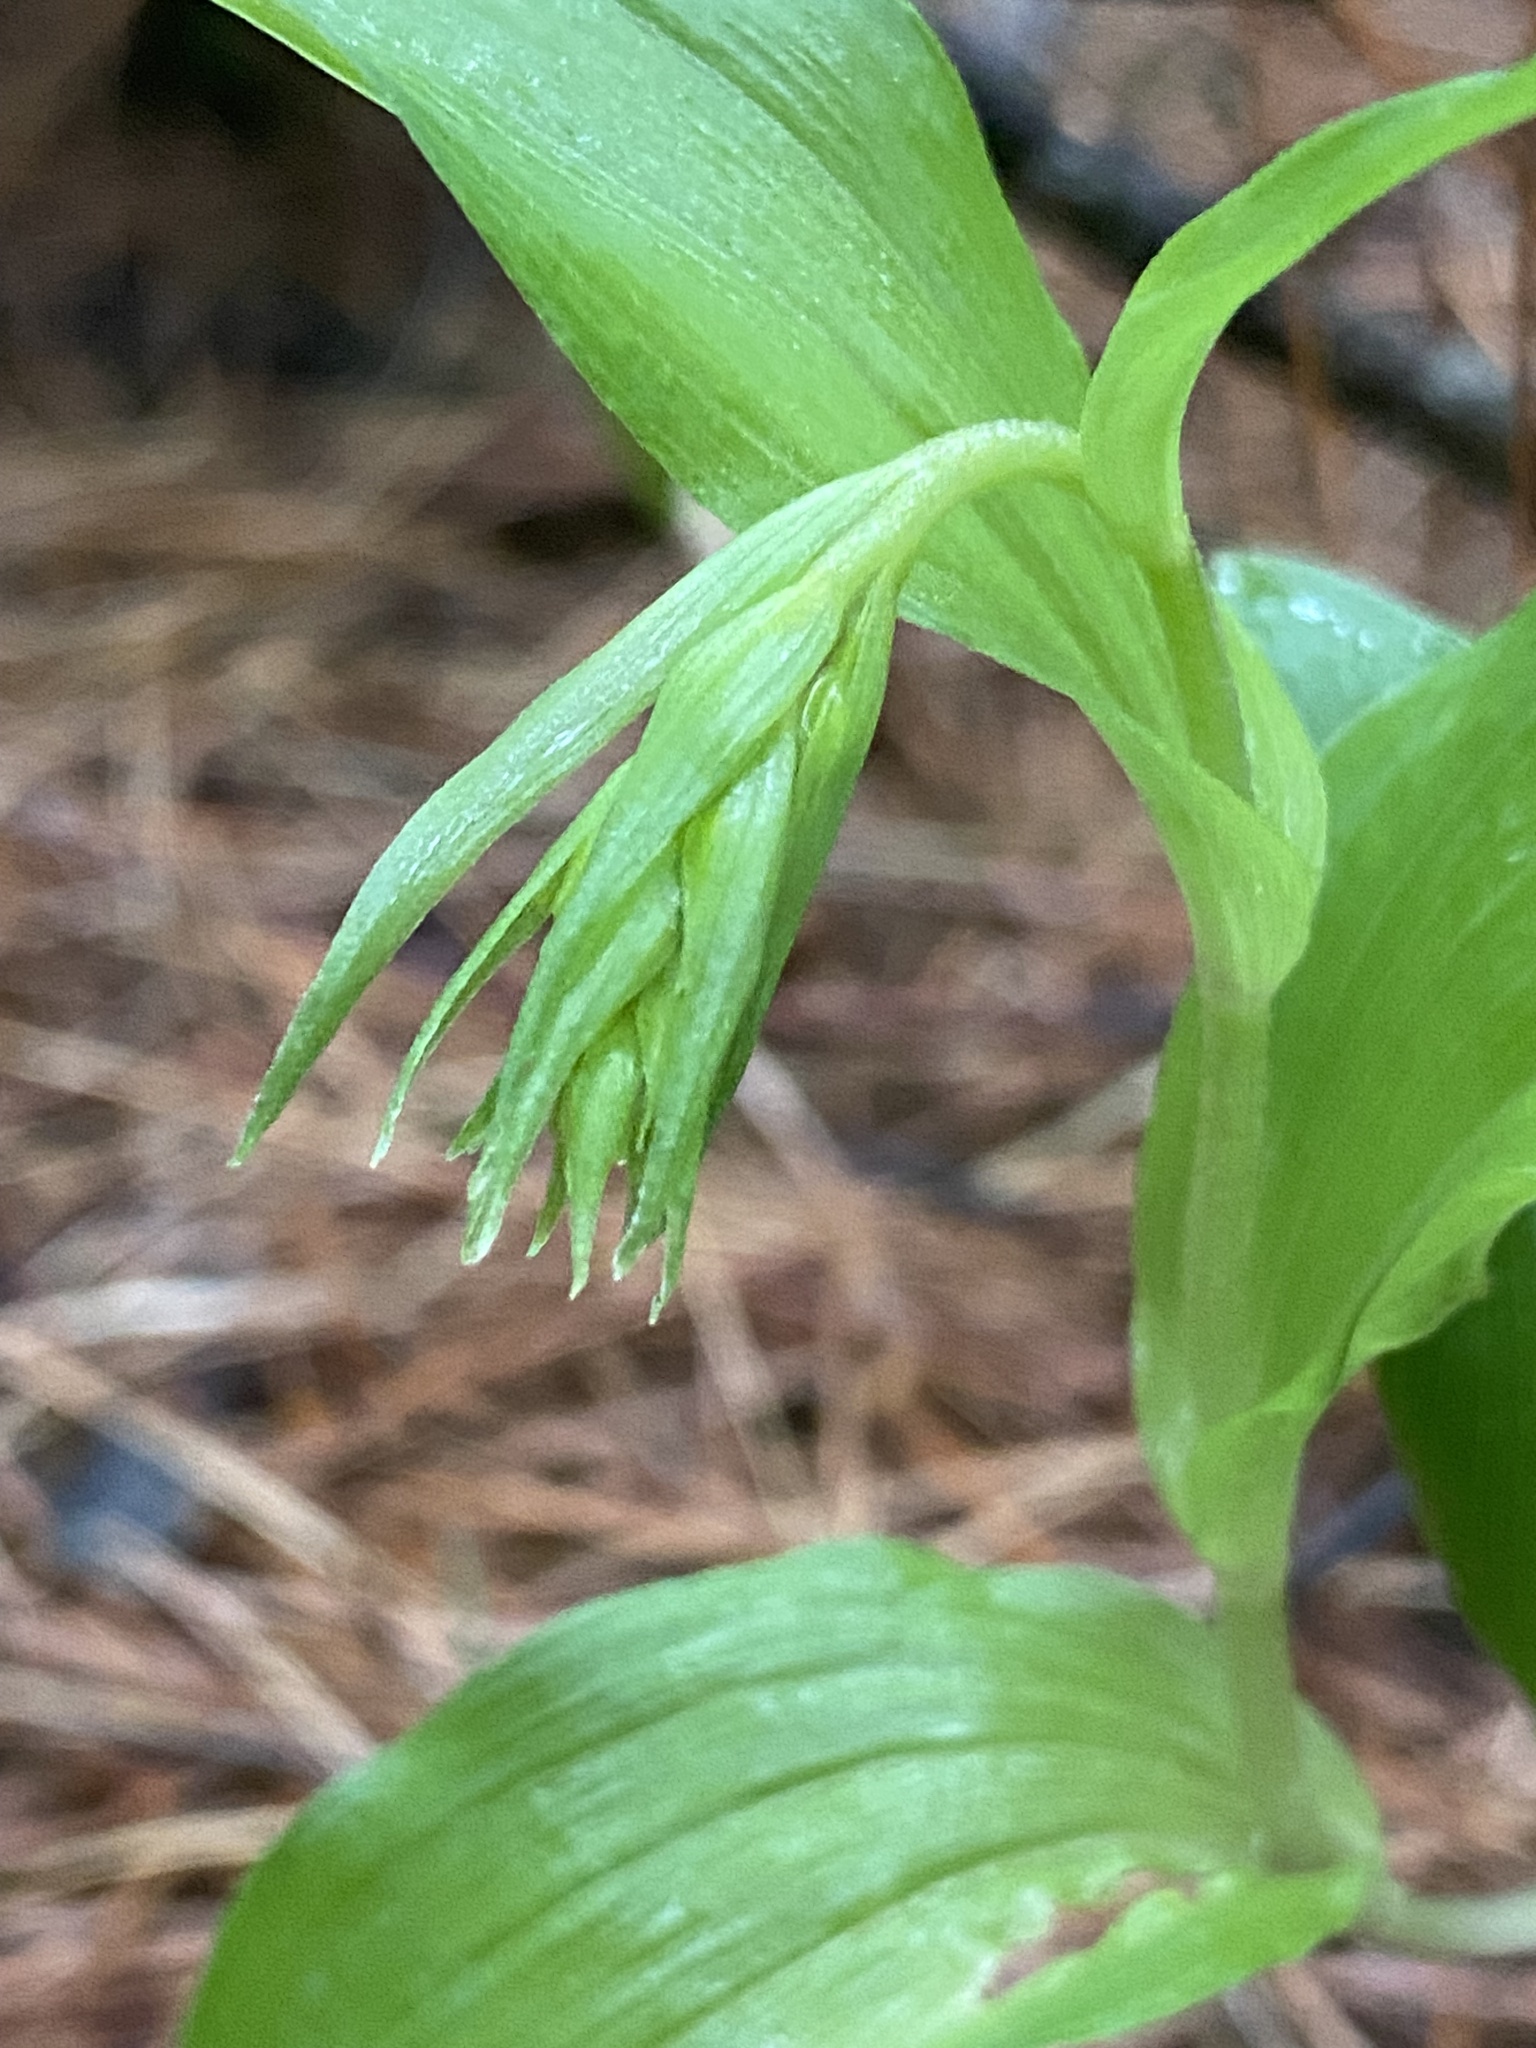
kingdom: Plantae
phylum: Tracheophyta
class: Liliopsida
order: Asparagales
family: Orchidaceae
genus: Epipactis
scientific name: Epipactis helleborine
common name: Broad-leaved helleborine
